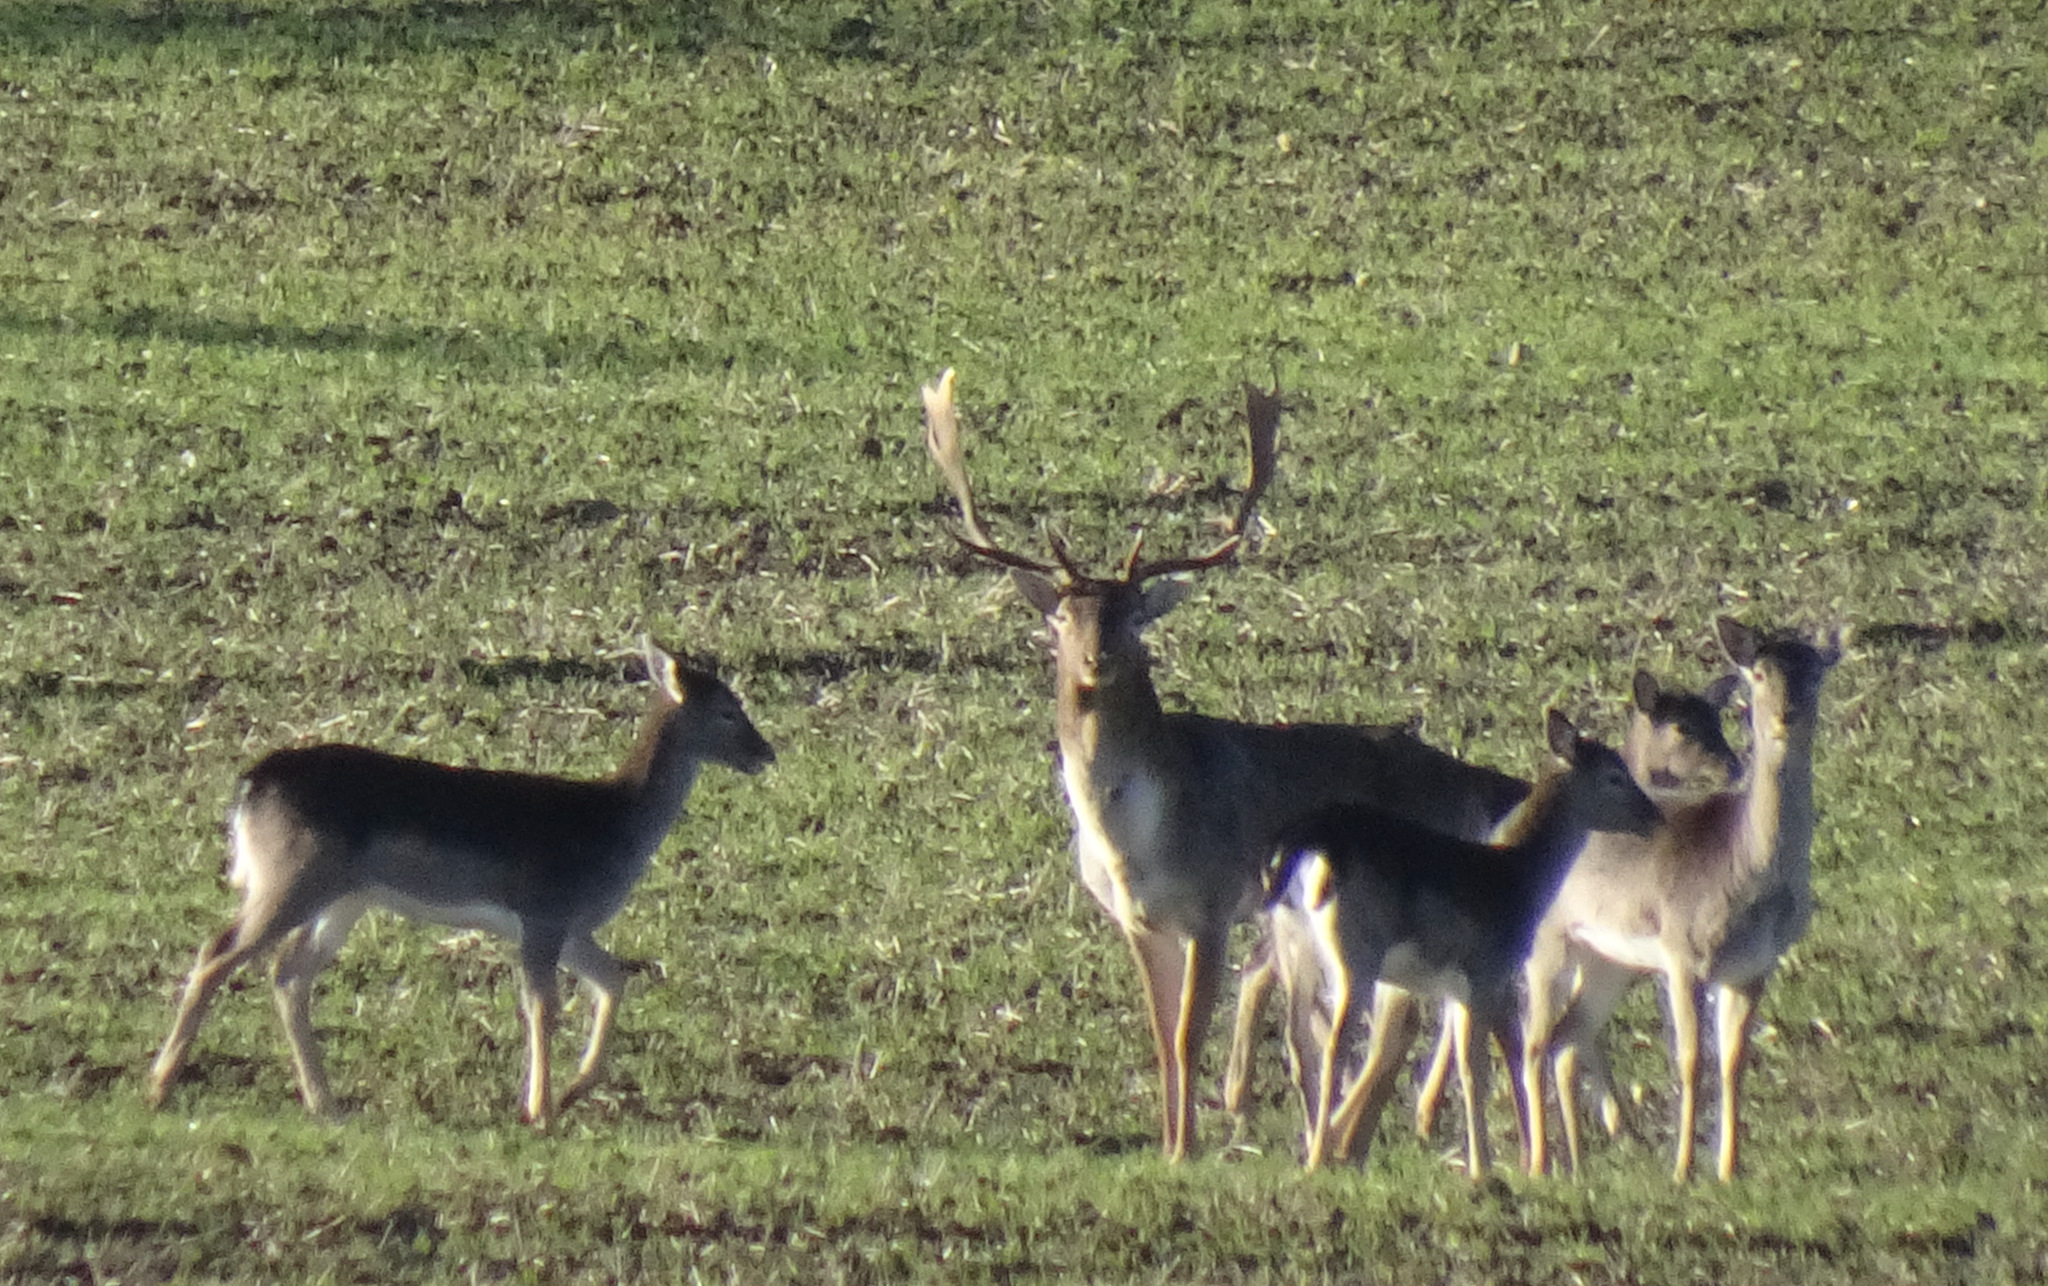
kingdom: Animalia
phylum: Chordata
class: Mammalia
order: Artiodactyla
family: Cervidae
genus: Dama
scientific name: Dama dama
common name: Fallow deer
